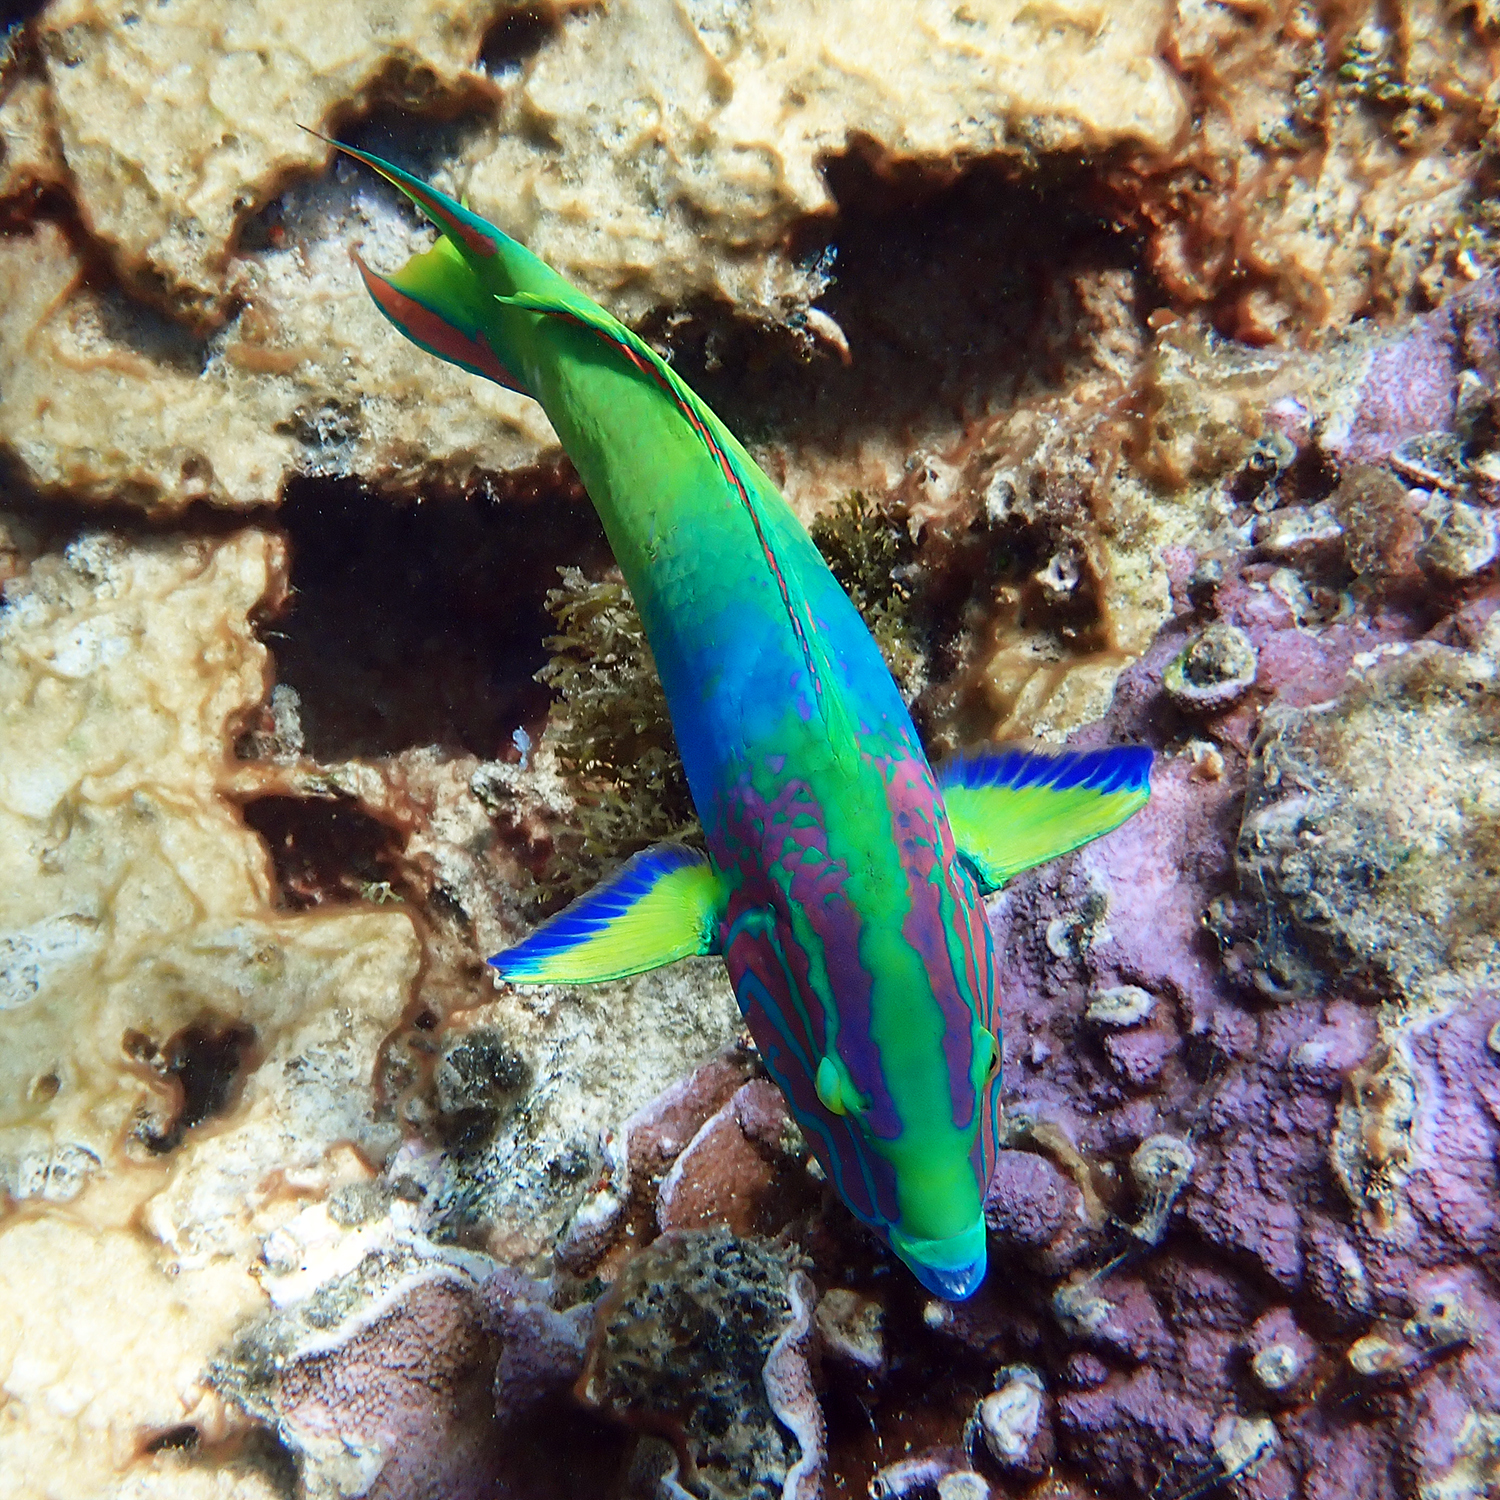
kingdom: Animalia
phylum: Chordata
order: Perciformes
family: Labridae
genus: Thalassoma
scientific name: Thalassoma lutescens
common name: Green moon wrasse
